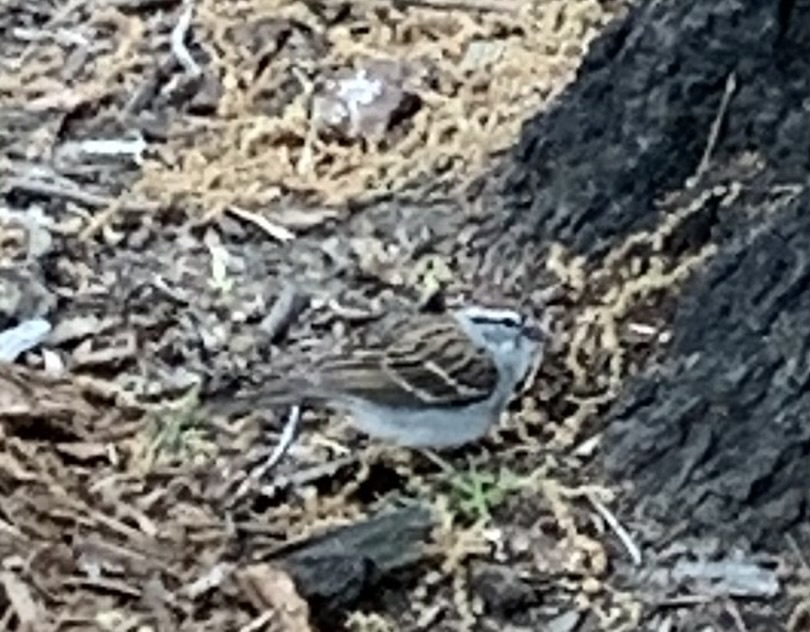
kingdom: Animalia
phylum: Chordata
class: Aves
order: Passeriformes
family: Passerellidae
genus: Spizella
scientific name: Spizella passerina
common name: Chipping sparrow
